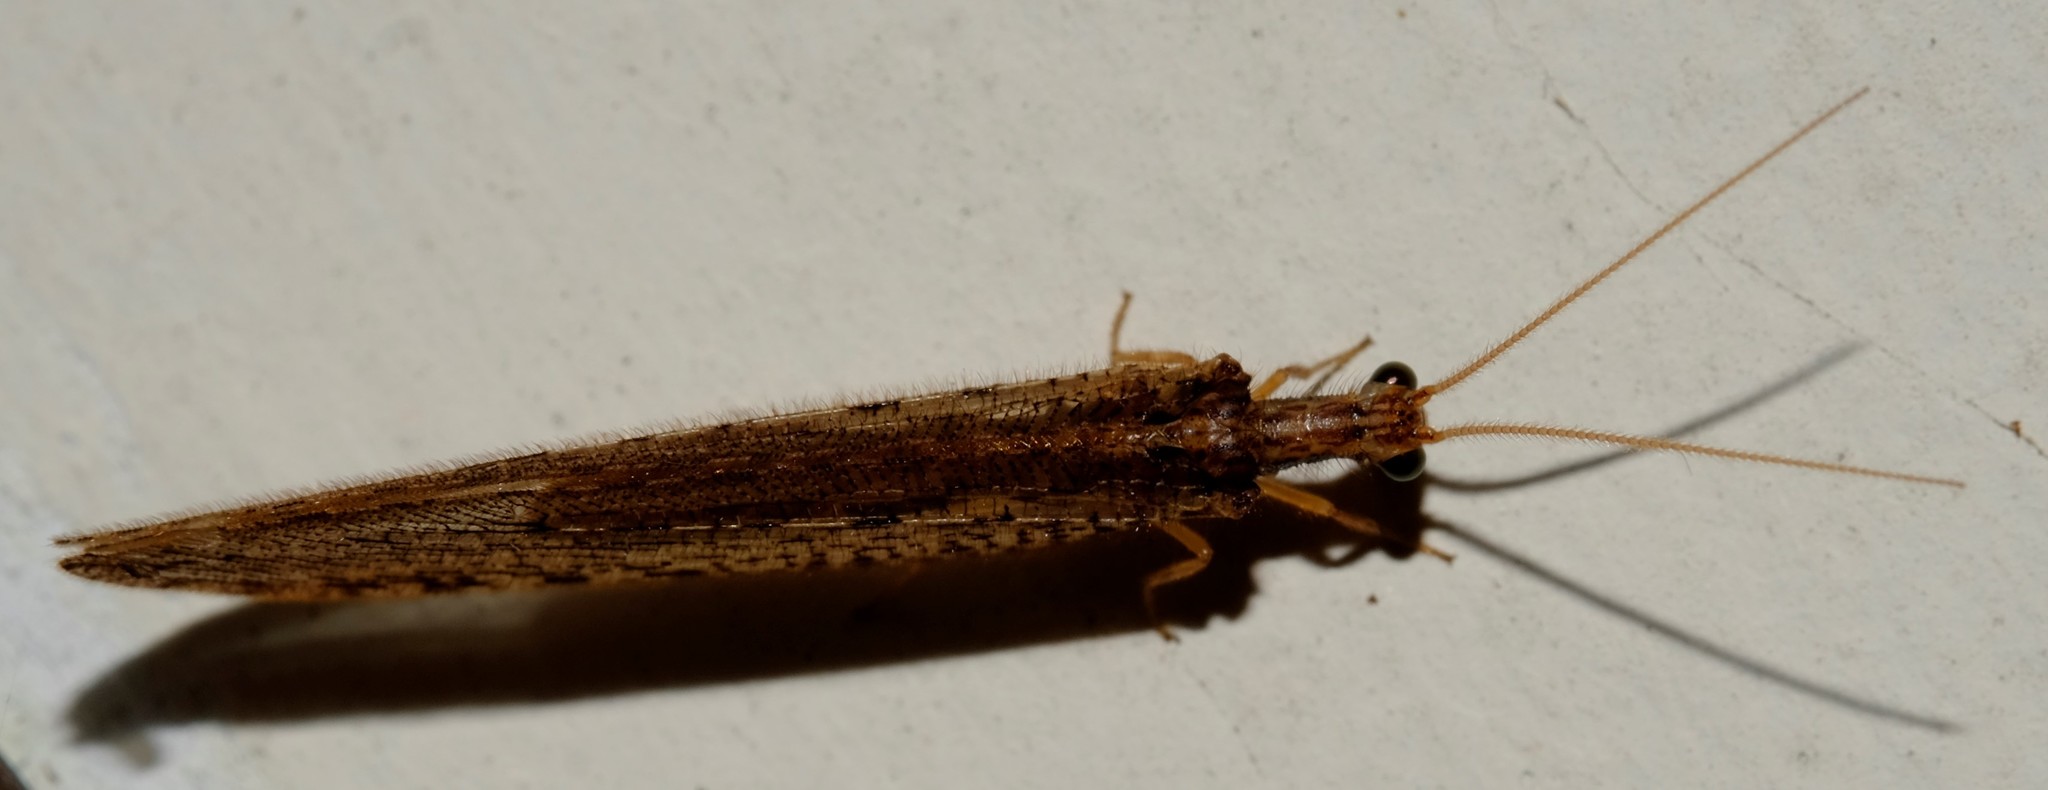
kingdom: Animalia
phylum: Arthropoda
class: Insecta
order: Neuroptera
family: Osmylidae
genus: Stenosmylus
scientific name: Stenosmylus tenuis
